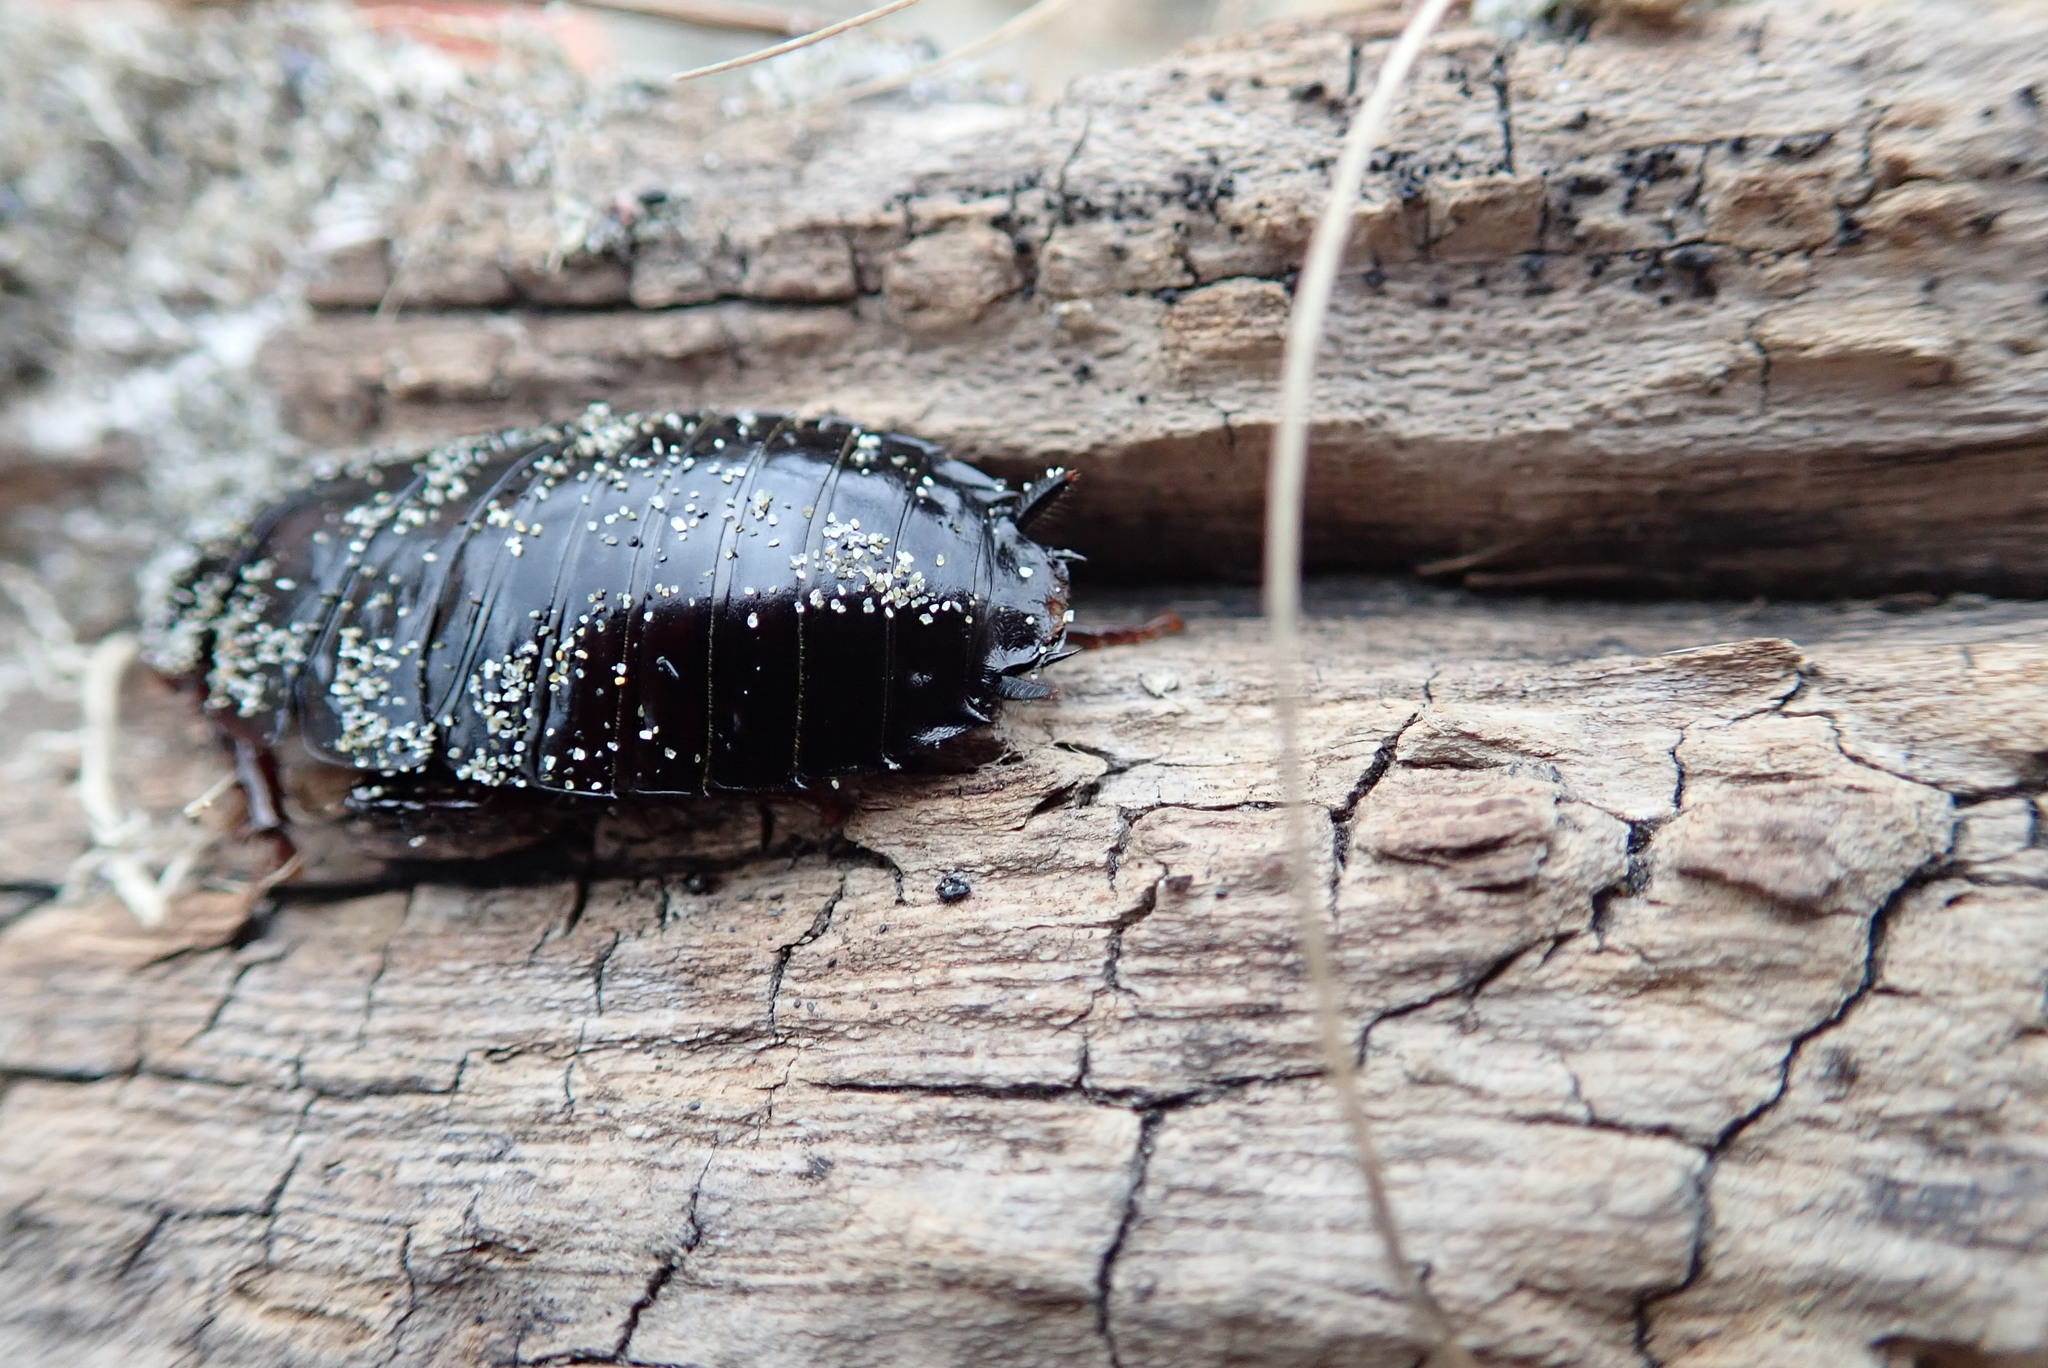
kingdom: Animalia
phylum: Arthropoda
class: Insecta
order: Blattodea
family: Blattidae
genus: Maoriblatta
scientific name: Maoriblatta novaeseelandiae
